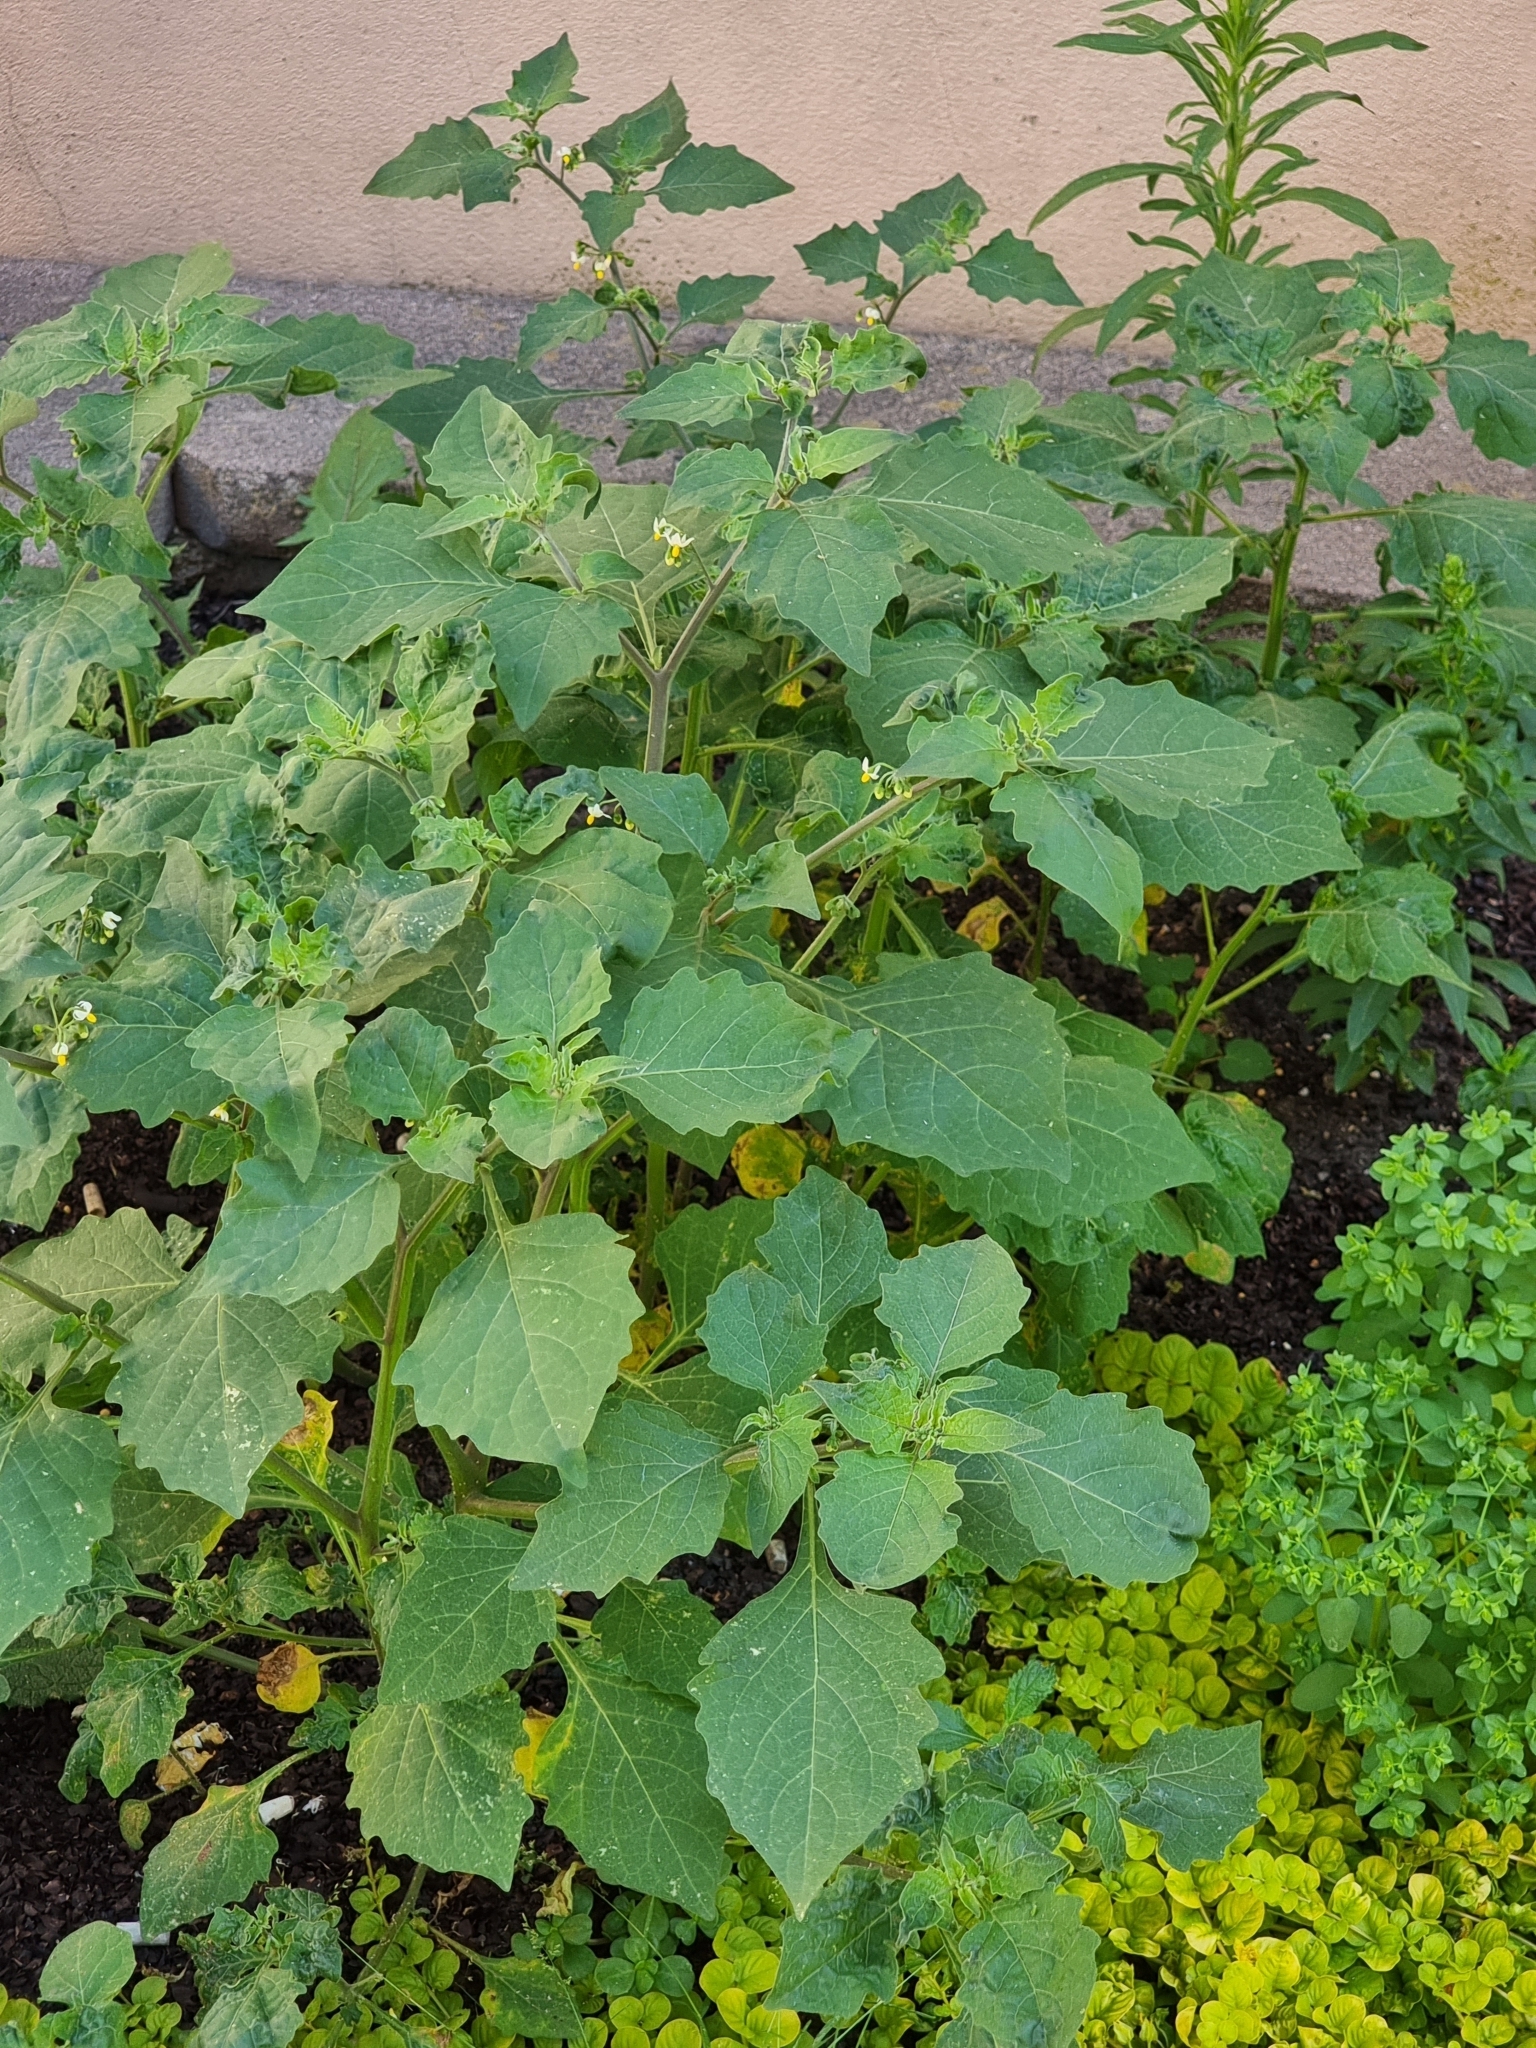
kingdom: Plantae
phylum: Tracheophyta
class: Magnoliopsida
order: Solanales
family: Solanaceae
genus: Solanum
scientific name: Solanum nigrum
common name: Black nightshade
